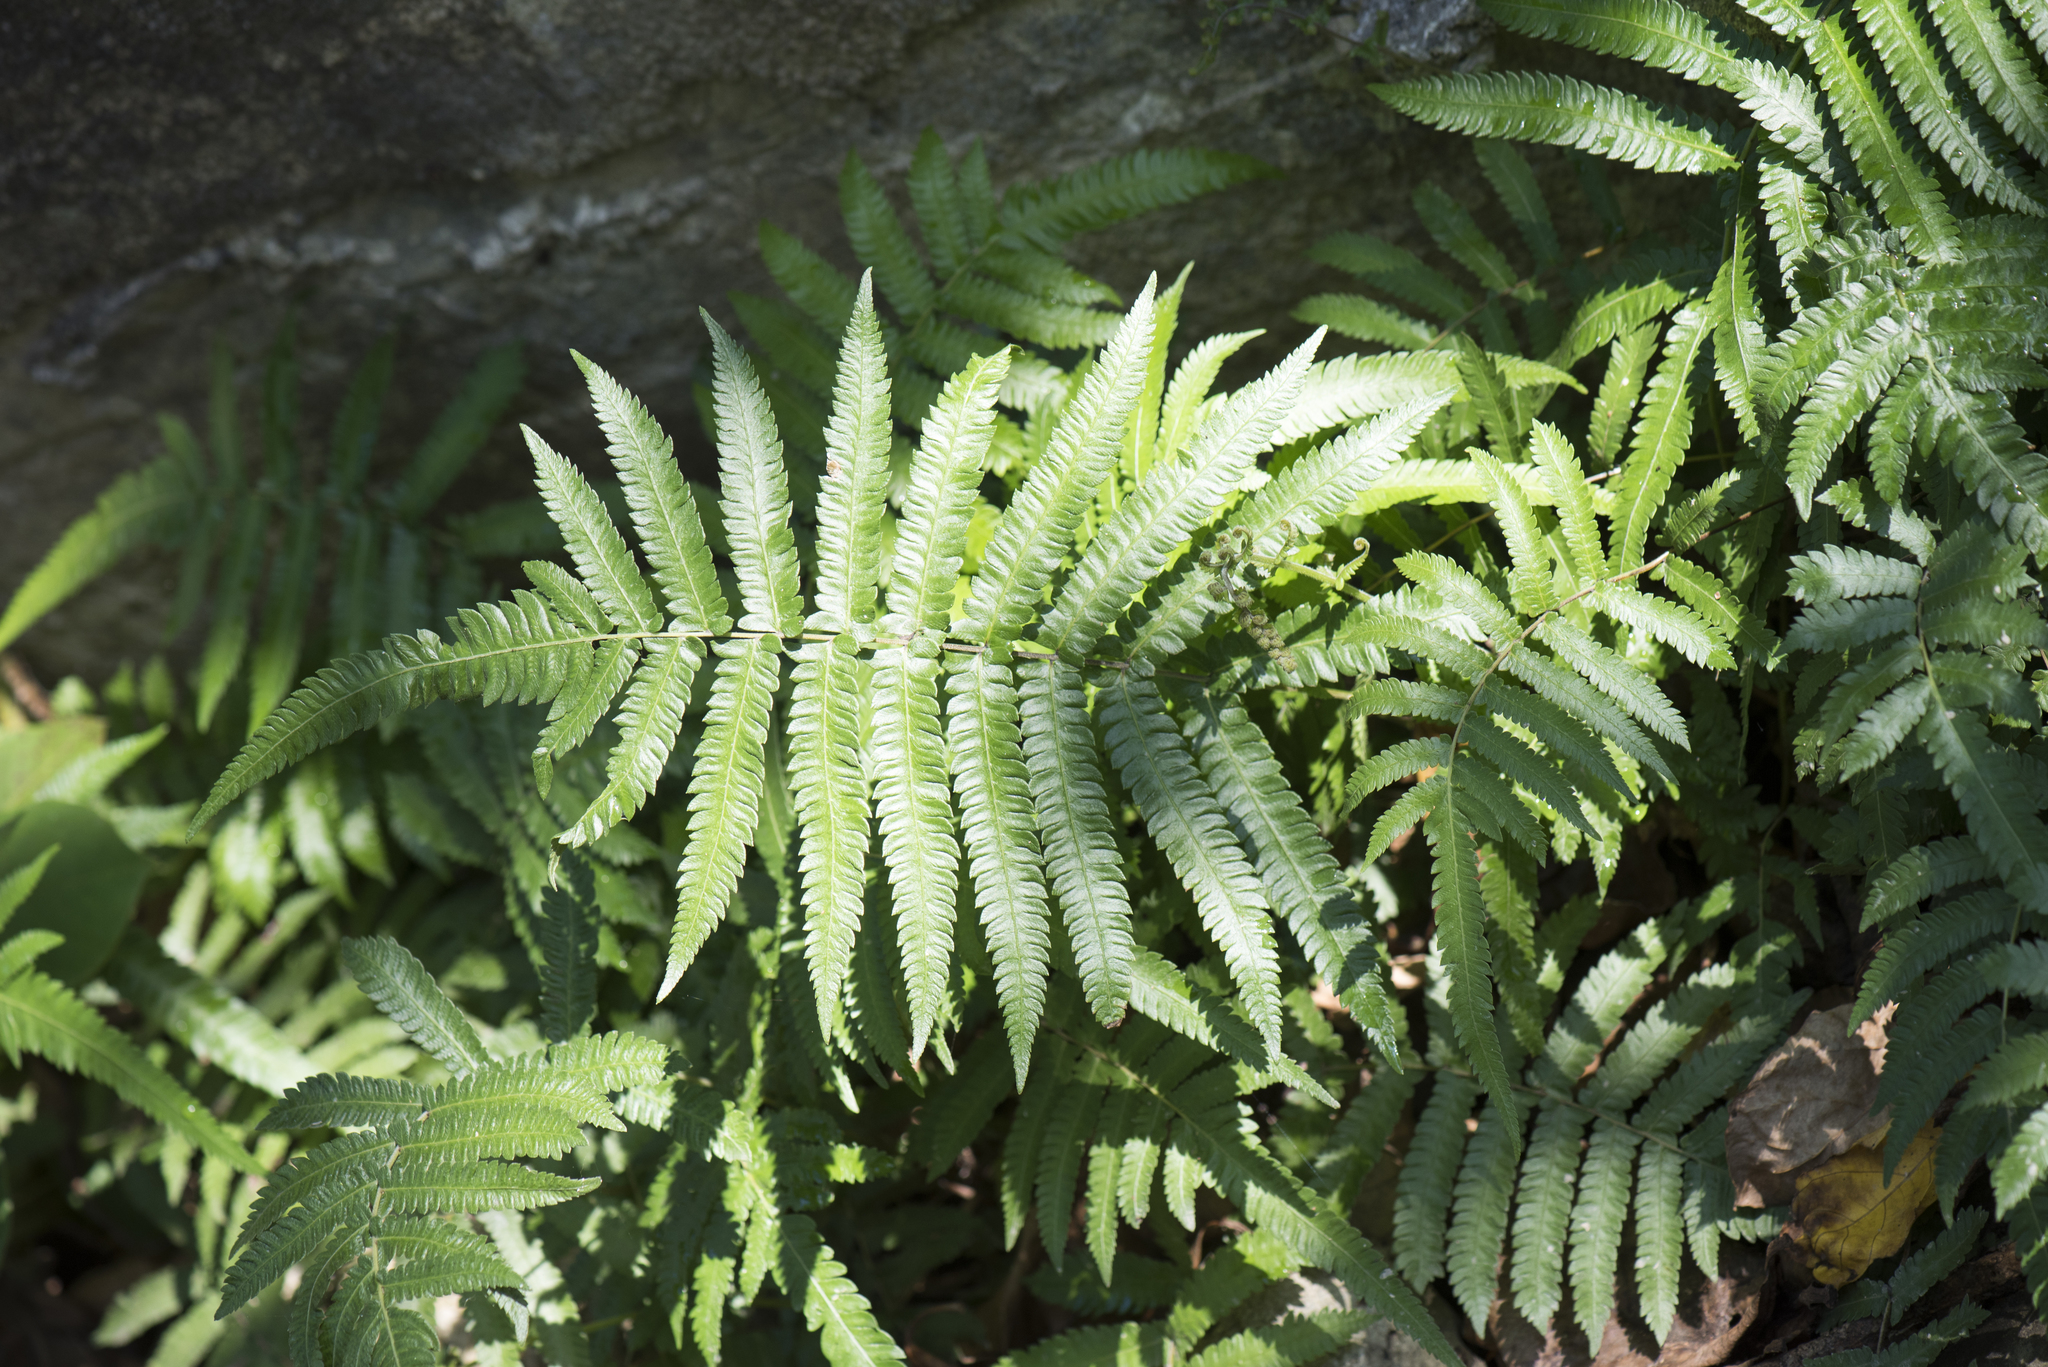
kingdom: Plantae
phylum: Tracheophyta
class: Polypodiopsida
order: Polypodiales
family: Thelypteridaceae
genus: Christella
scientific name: Christella acuminata
